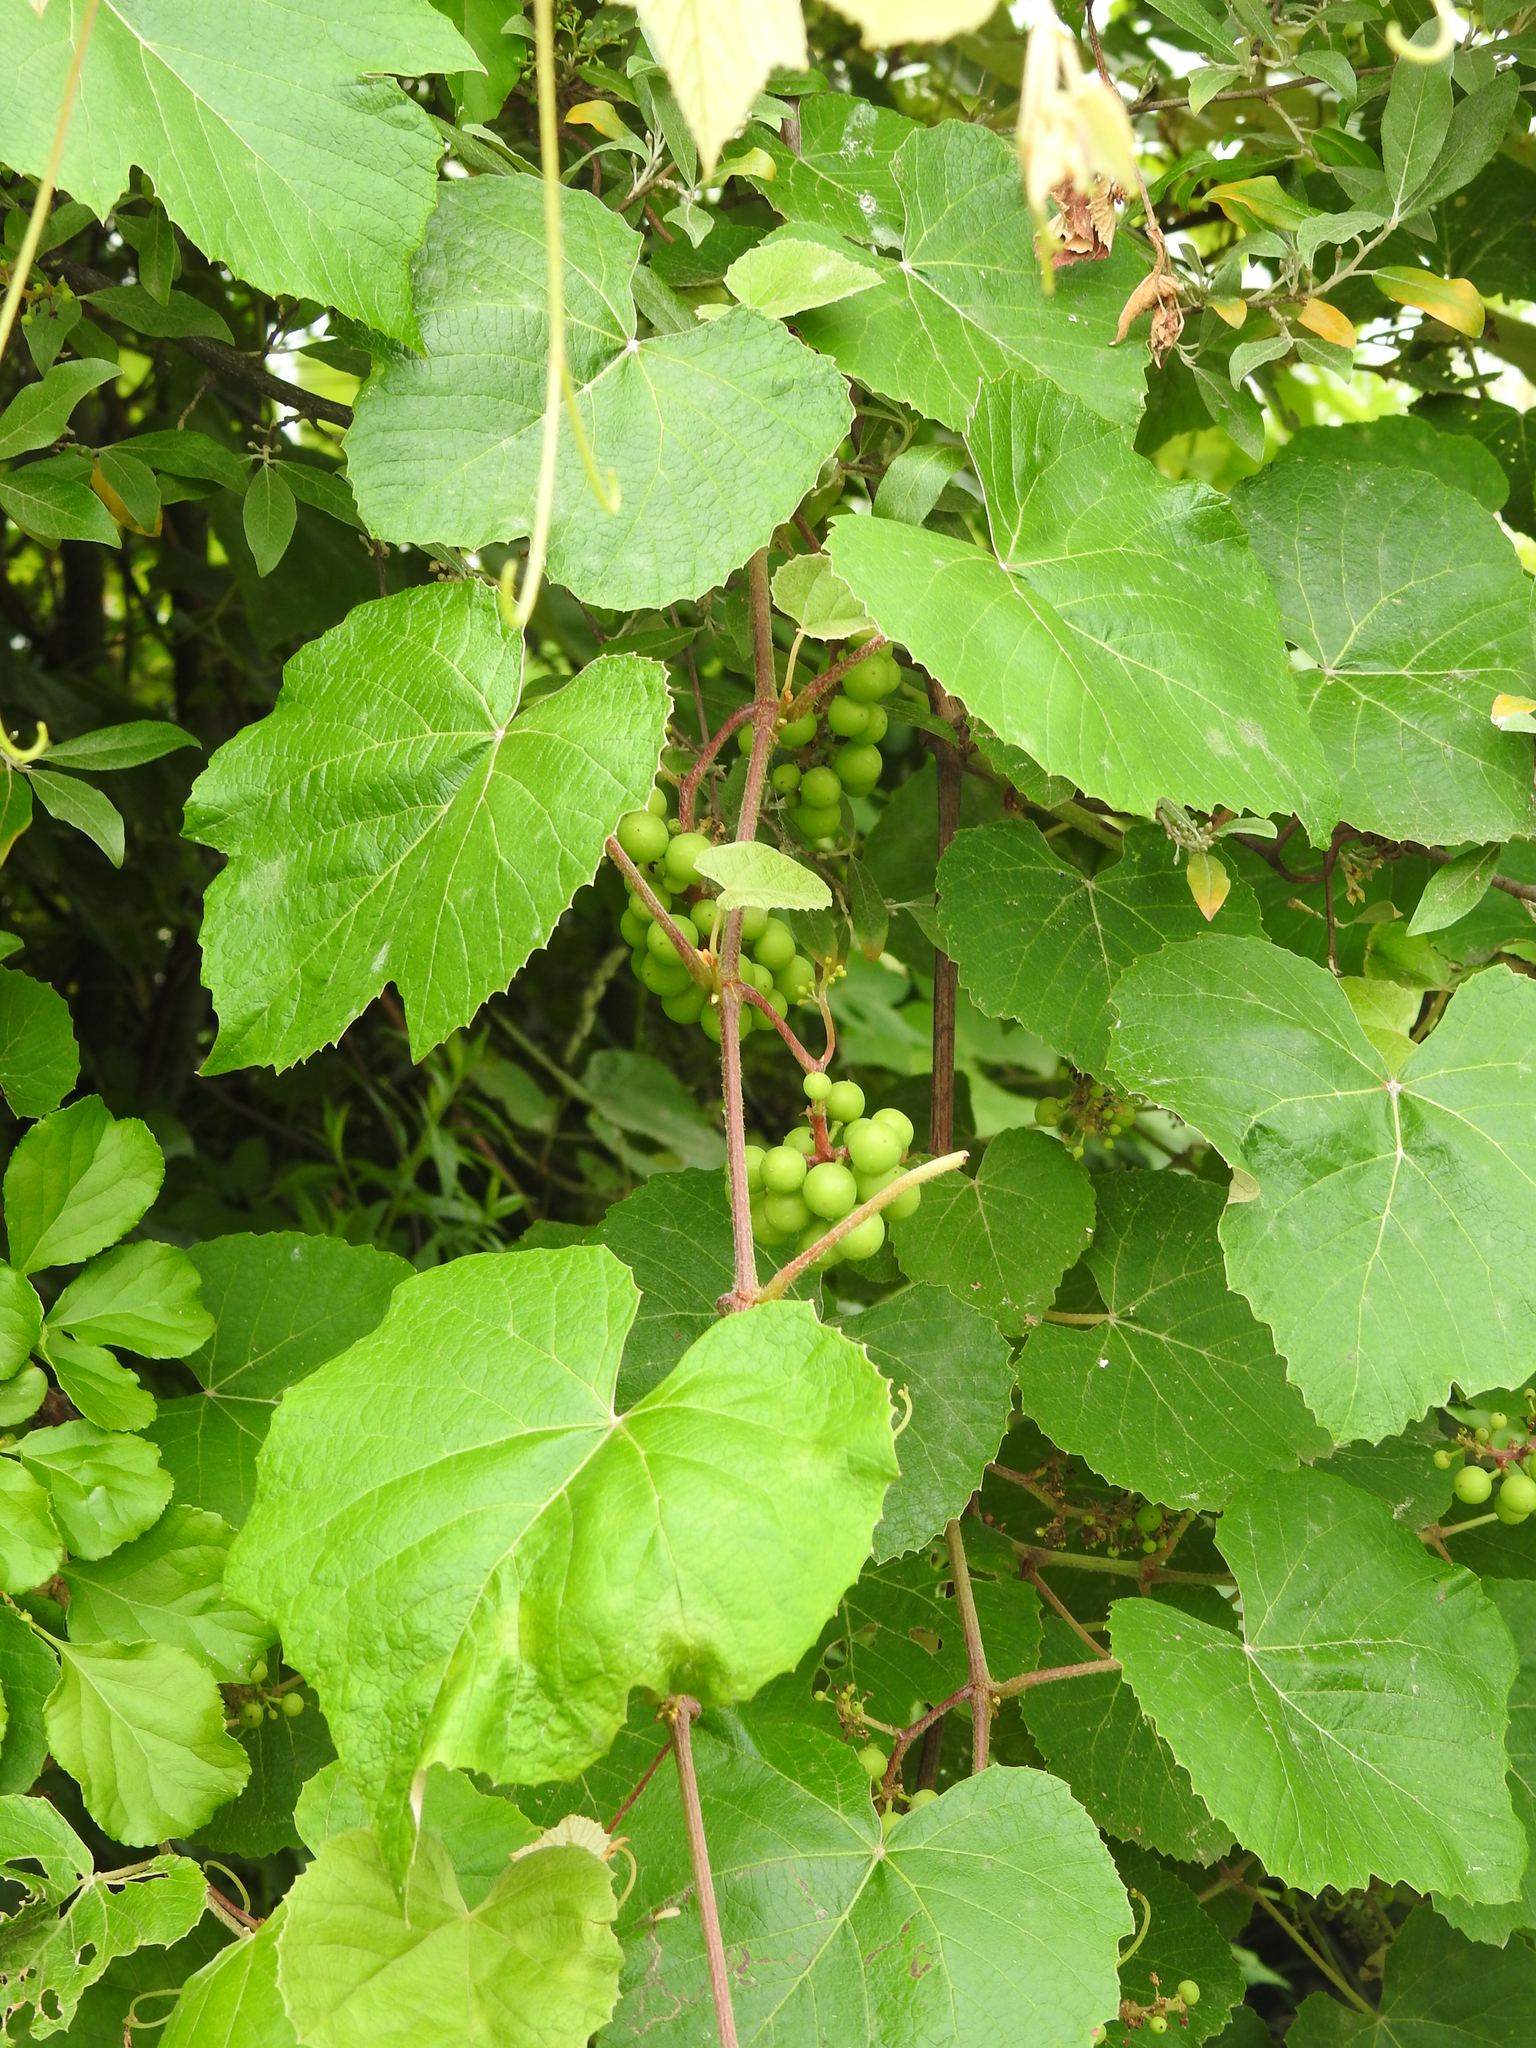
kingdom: Plantae
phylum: Tracheophyta
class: Magnoliopsida
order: Vitales
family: Vitaceae
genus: Vitis
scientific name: Vitis labrusca
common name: Concord grape
